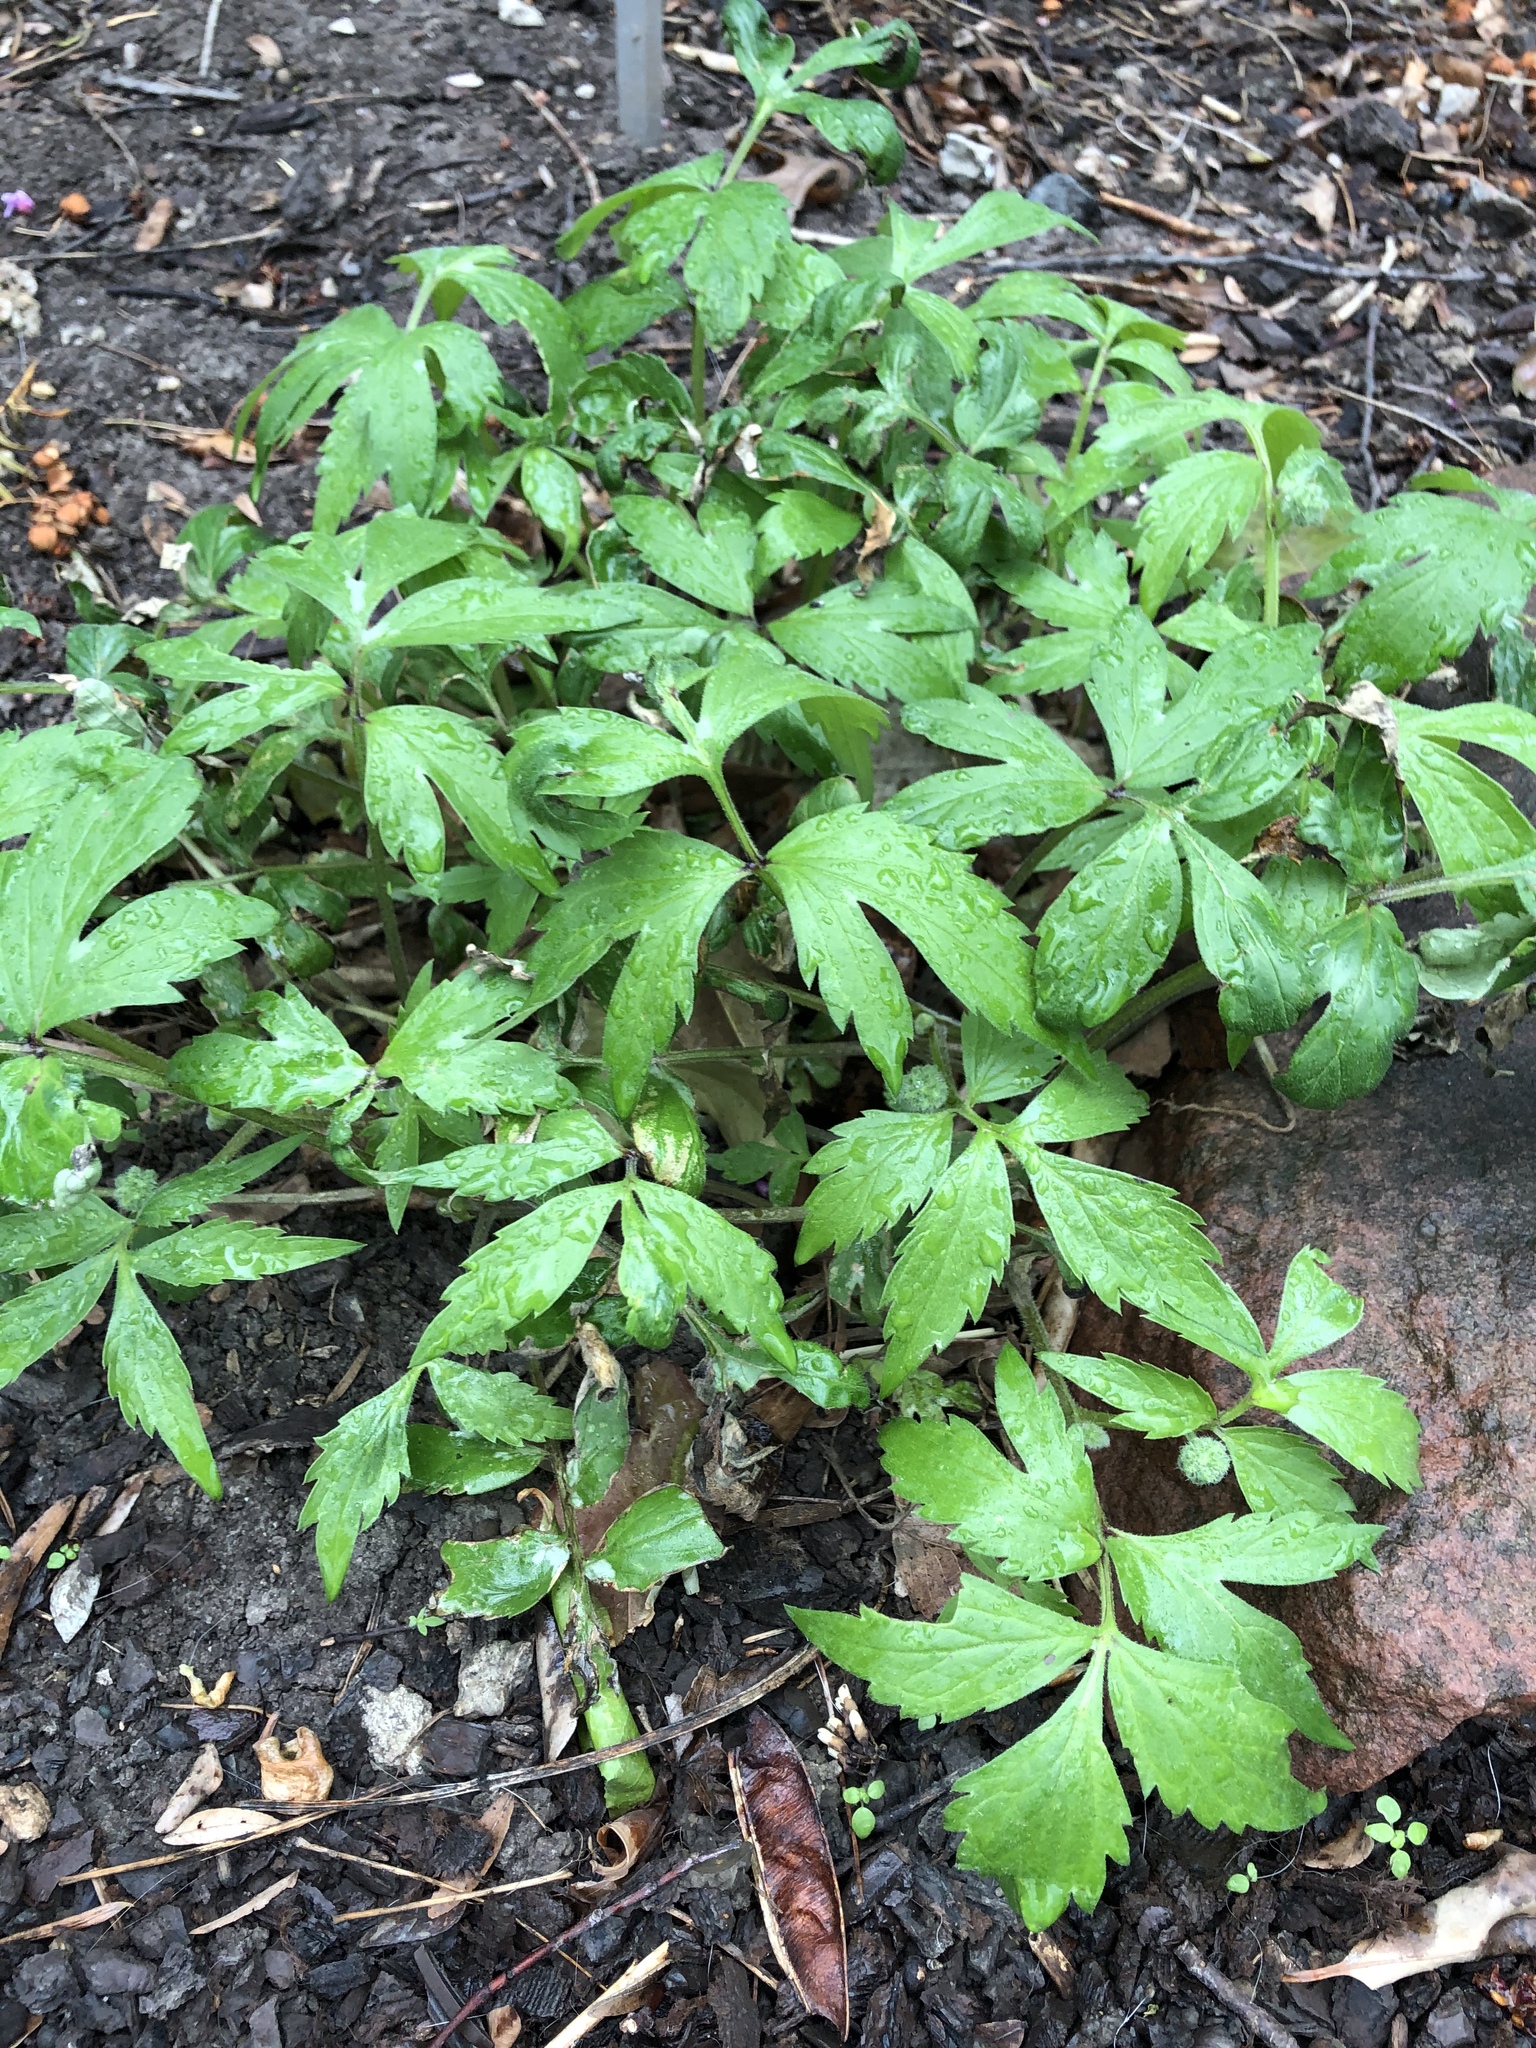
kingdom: Plantae
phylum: Tracheophyta
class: Magnoliopsida
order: Boraginales
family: Hydrophyllaceae
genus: Hydrophyllum
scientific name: Hydrophyllum virginianum
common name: Virginia waterleaf
